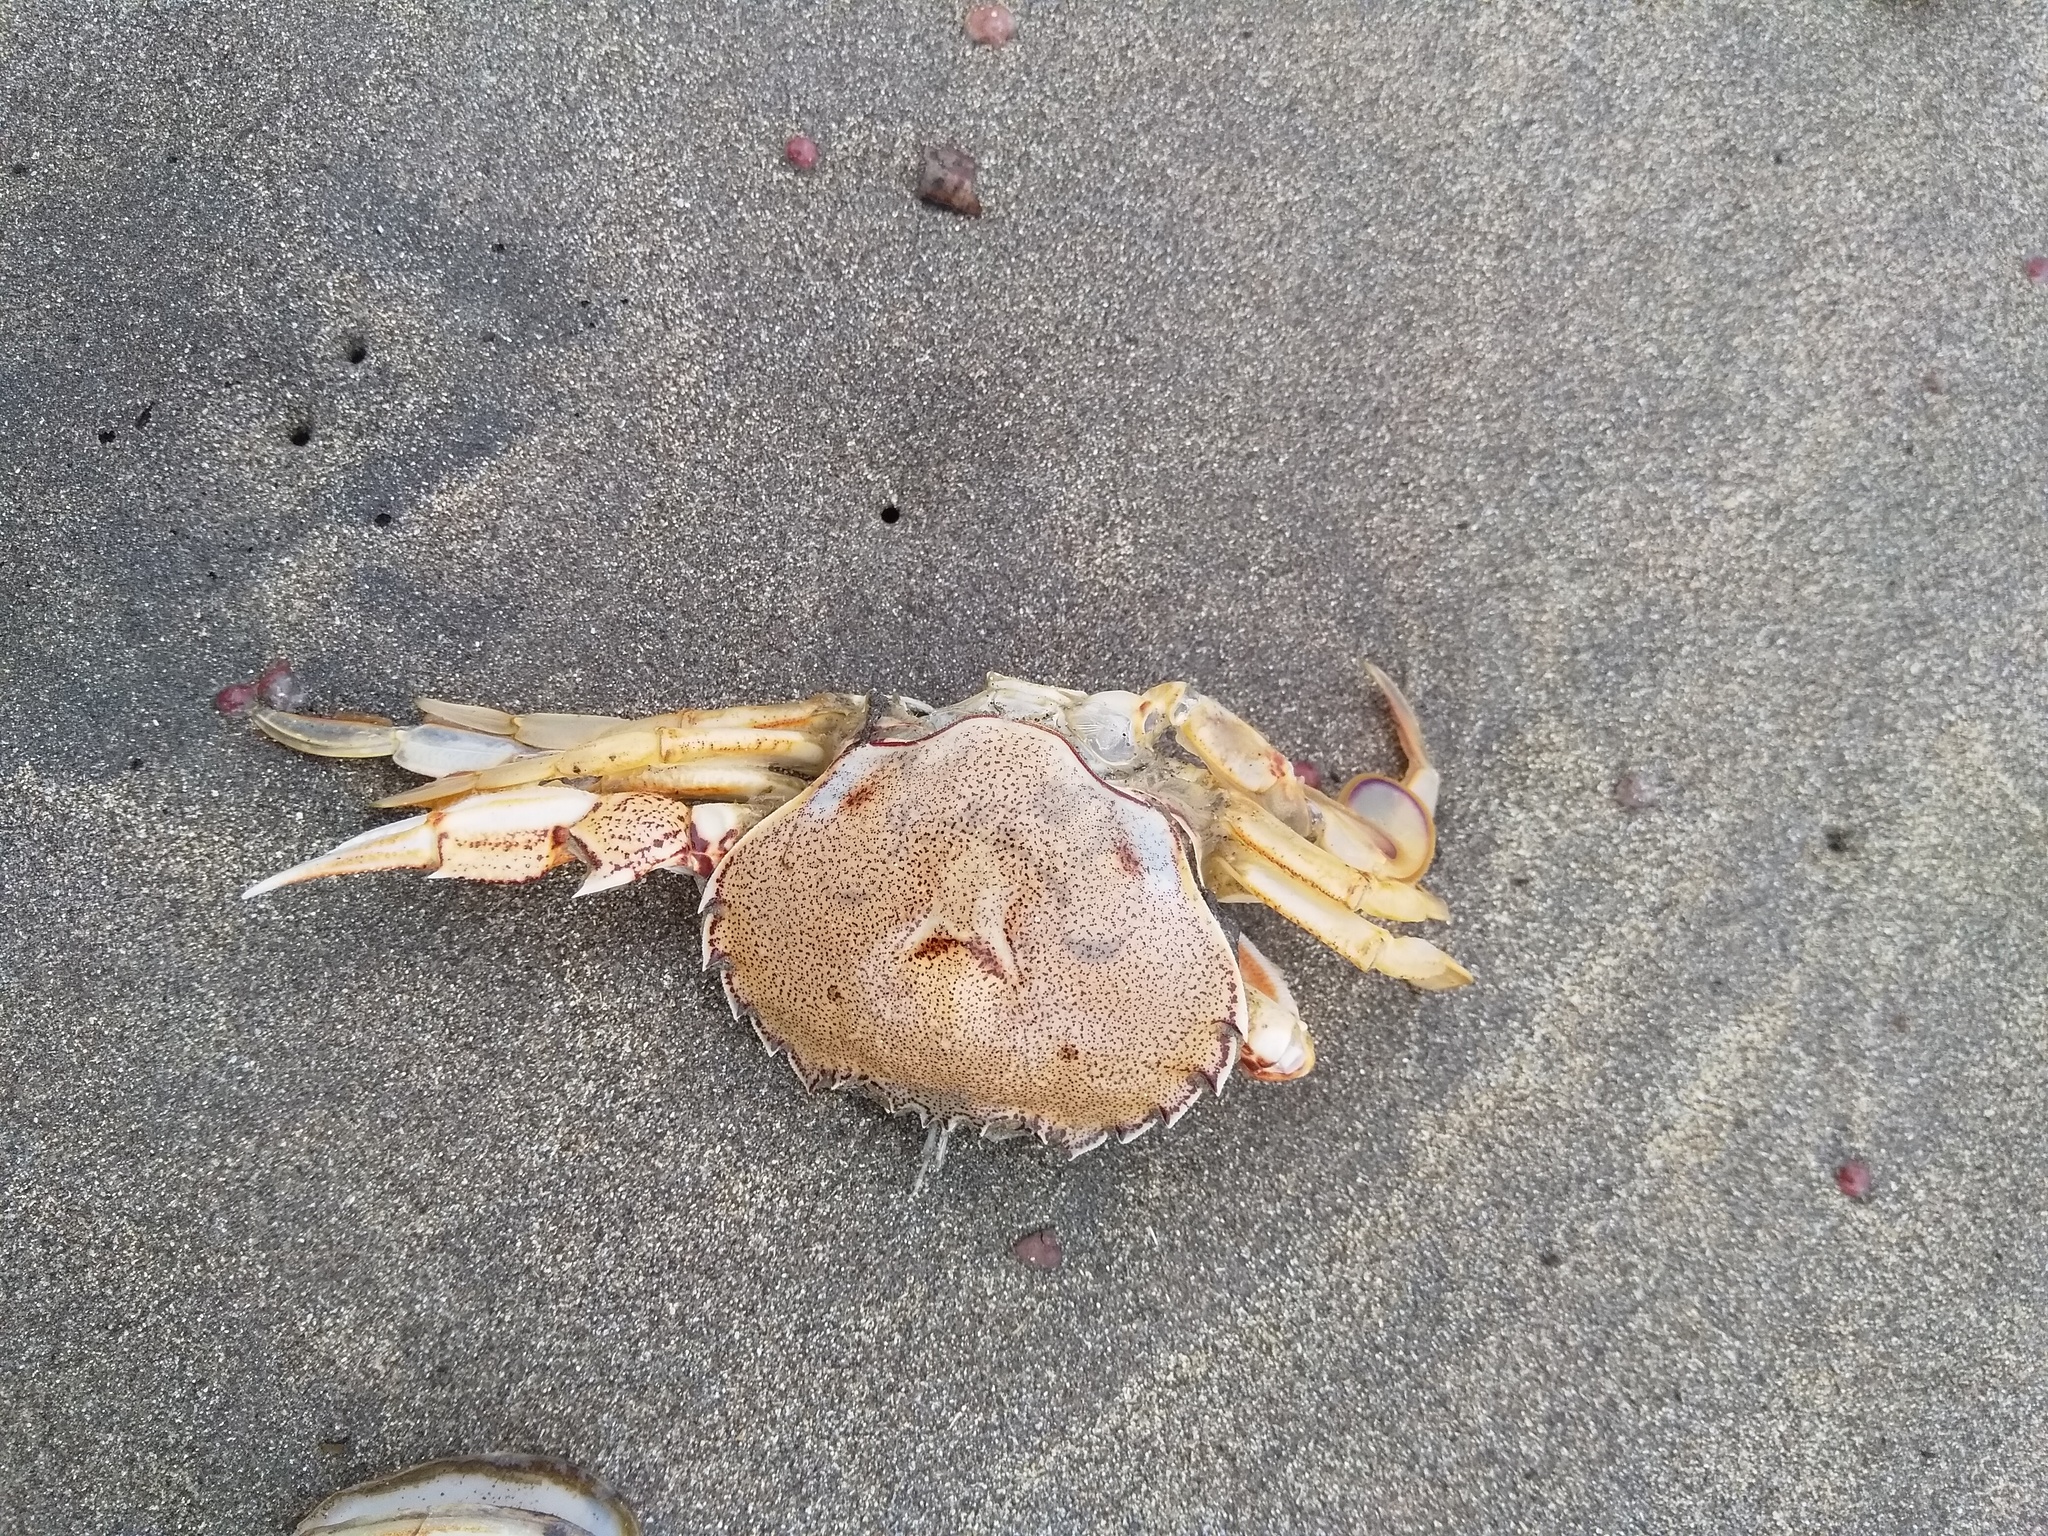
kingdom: Animalia
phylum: Arthropoda
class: Malacostraca
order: Decapoda
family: Ovalipidae
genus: Ovalipes
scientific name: Ovalipes catharus
